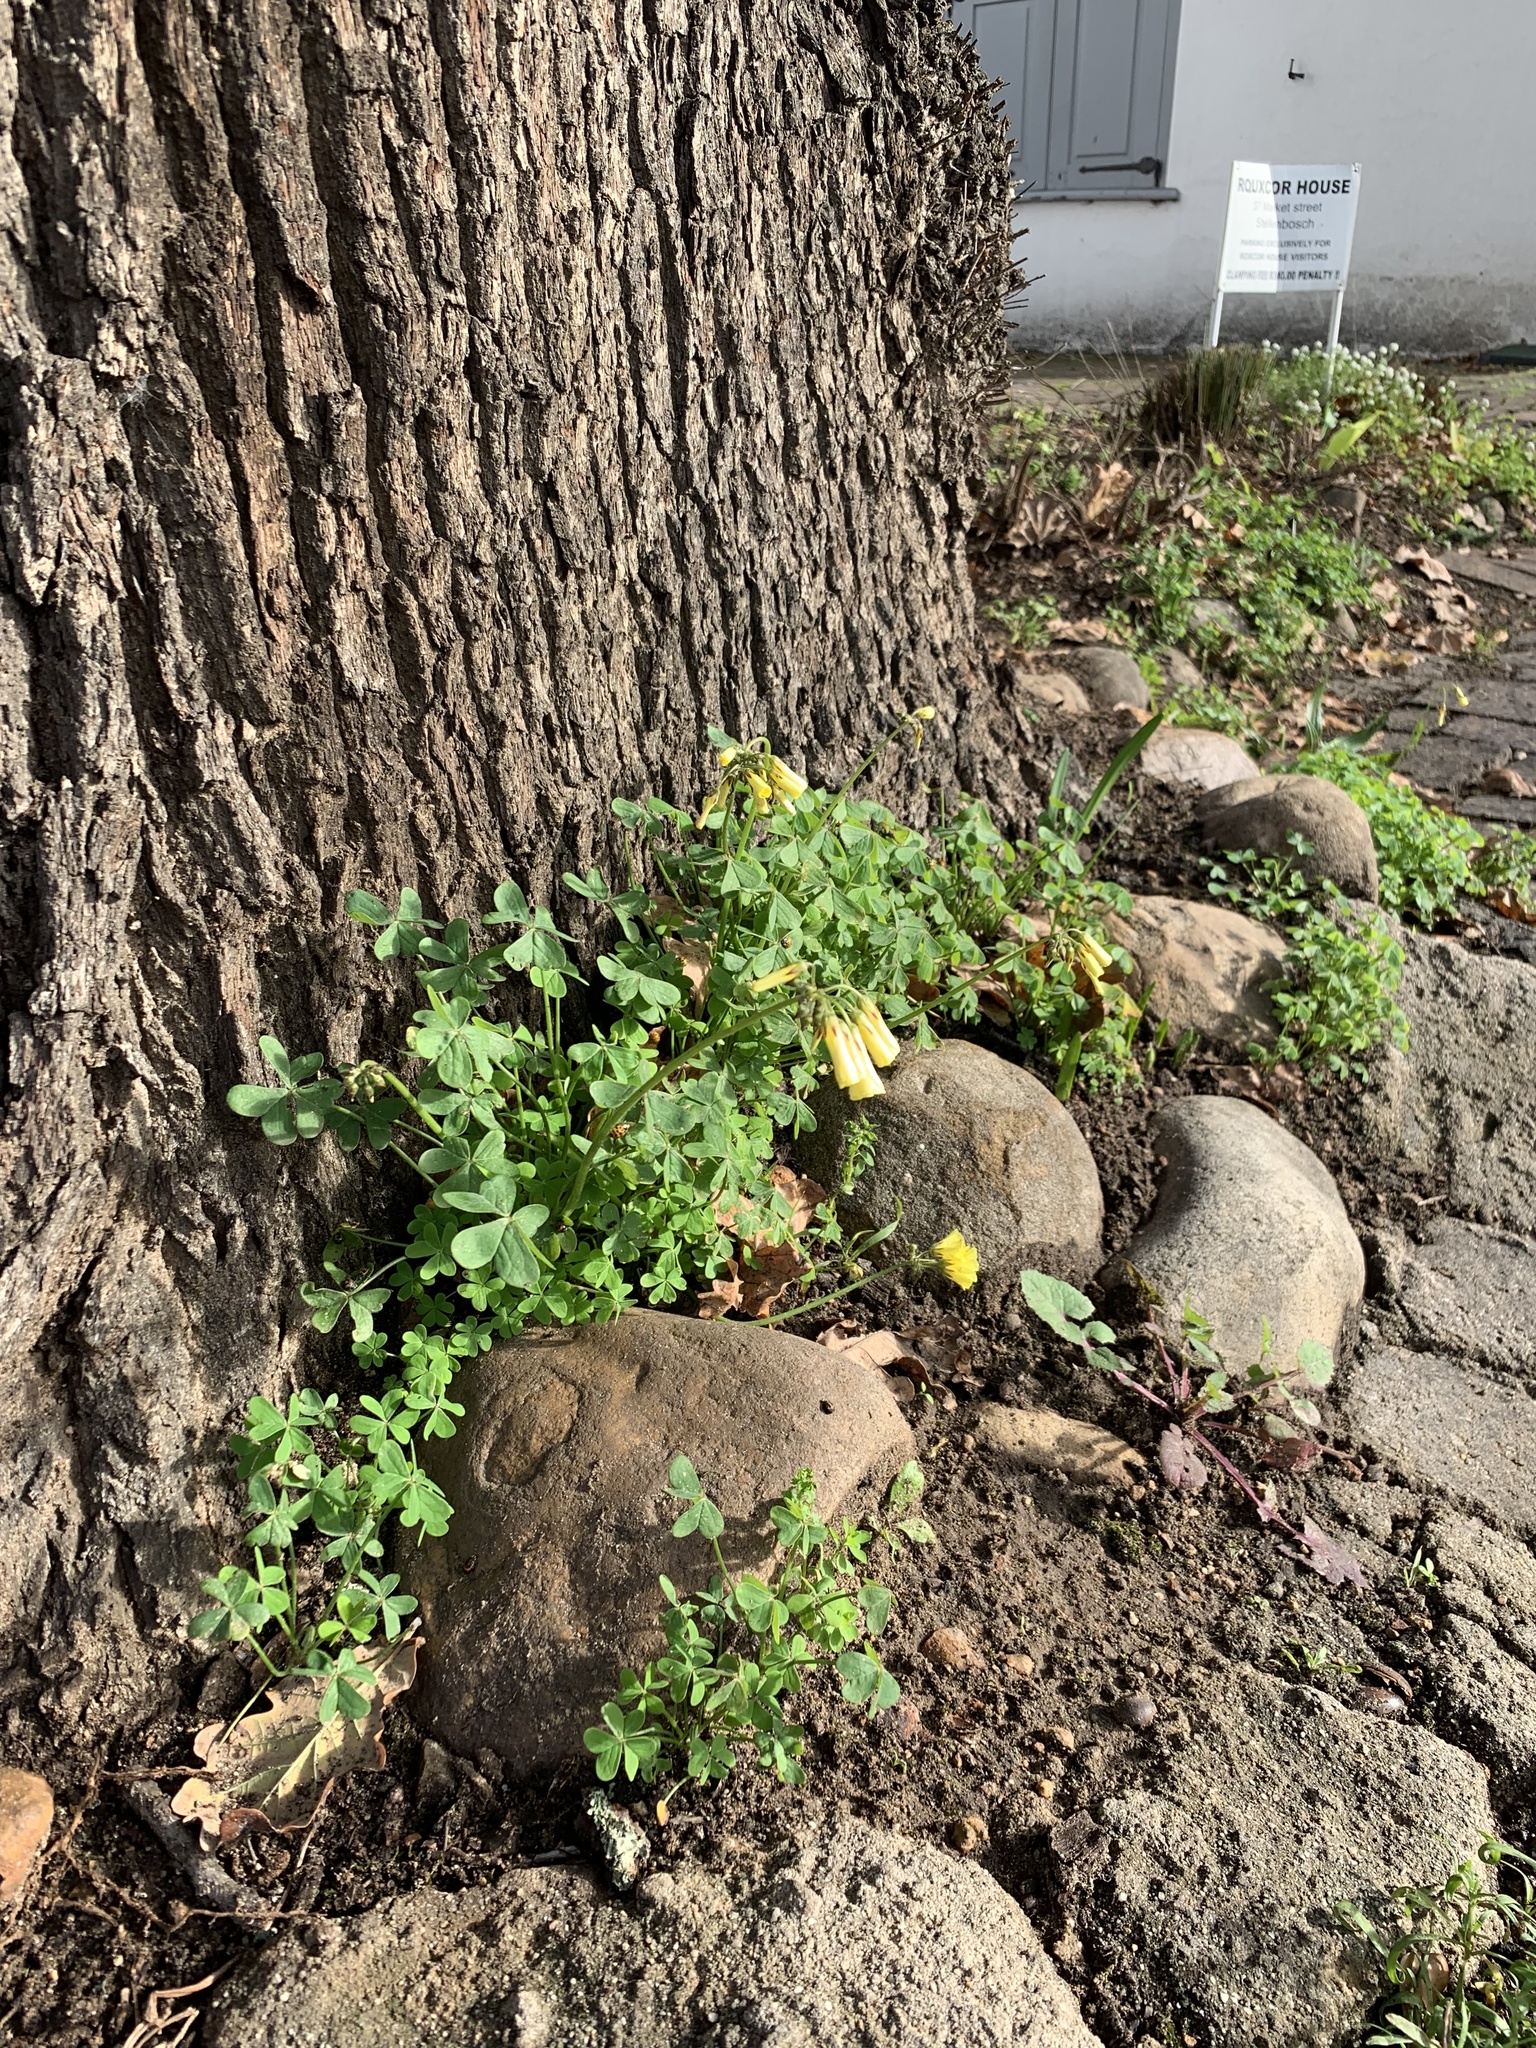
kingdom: Plantae
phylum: Tracheophyta
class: Magnoliopsida
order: Oxalidales
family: Oxalidaceae
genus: Oxalis
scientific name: Oxalis pes-caprae
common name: Bermuda-buttercup
